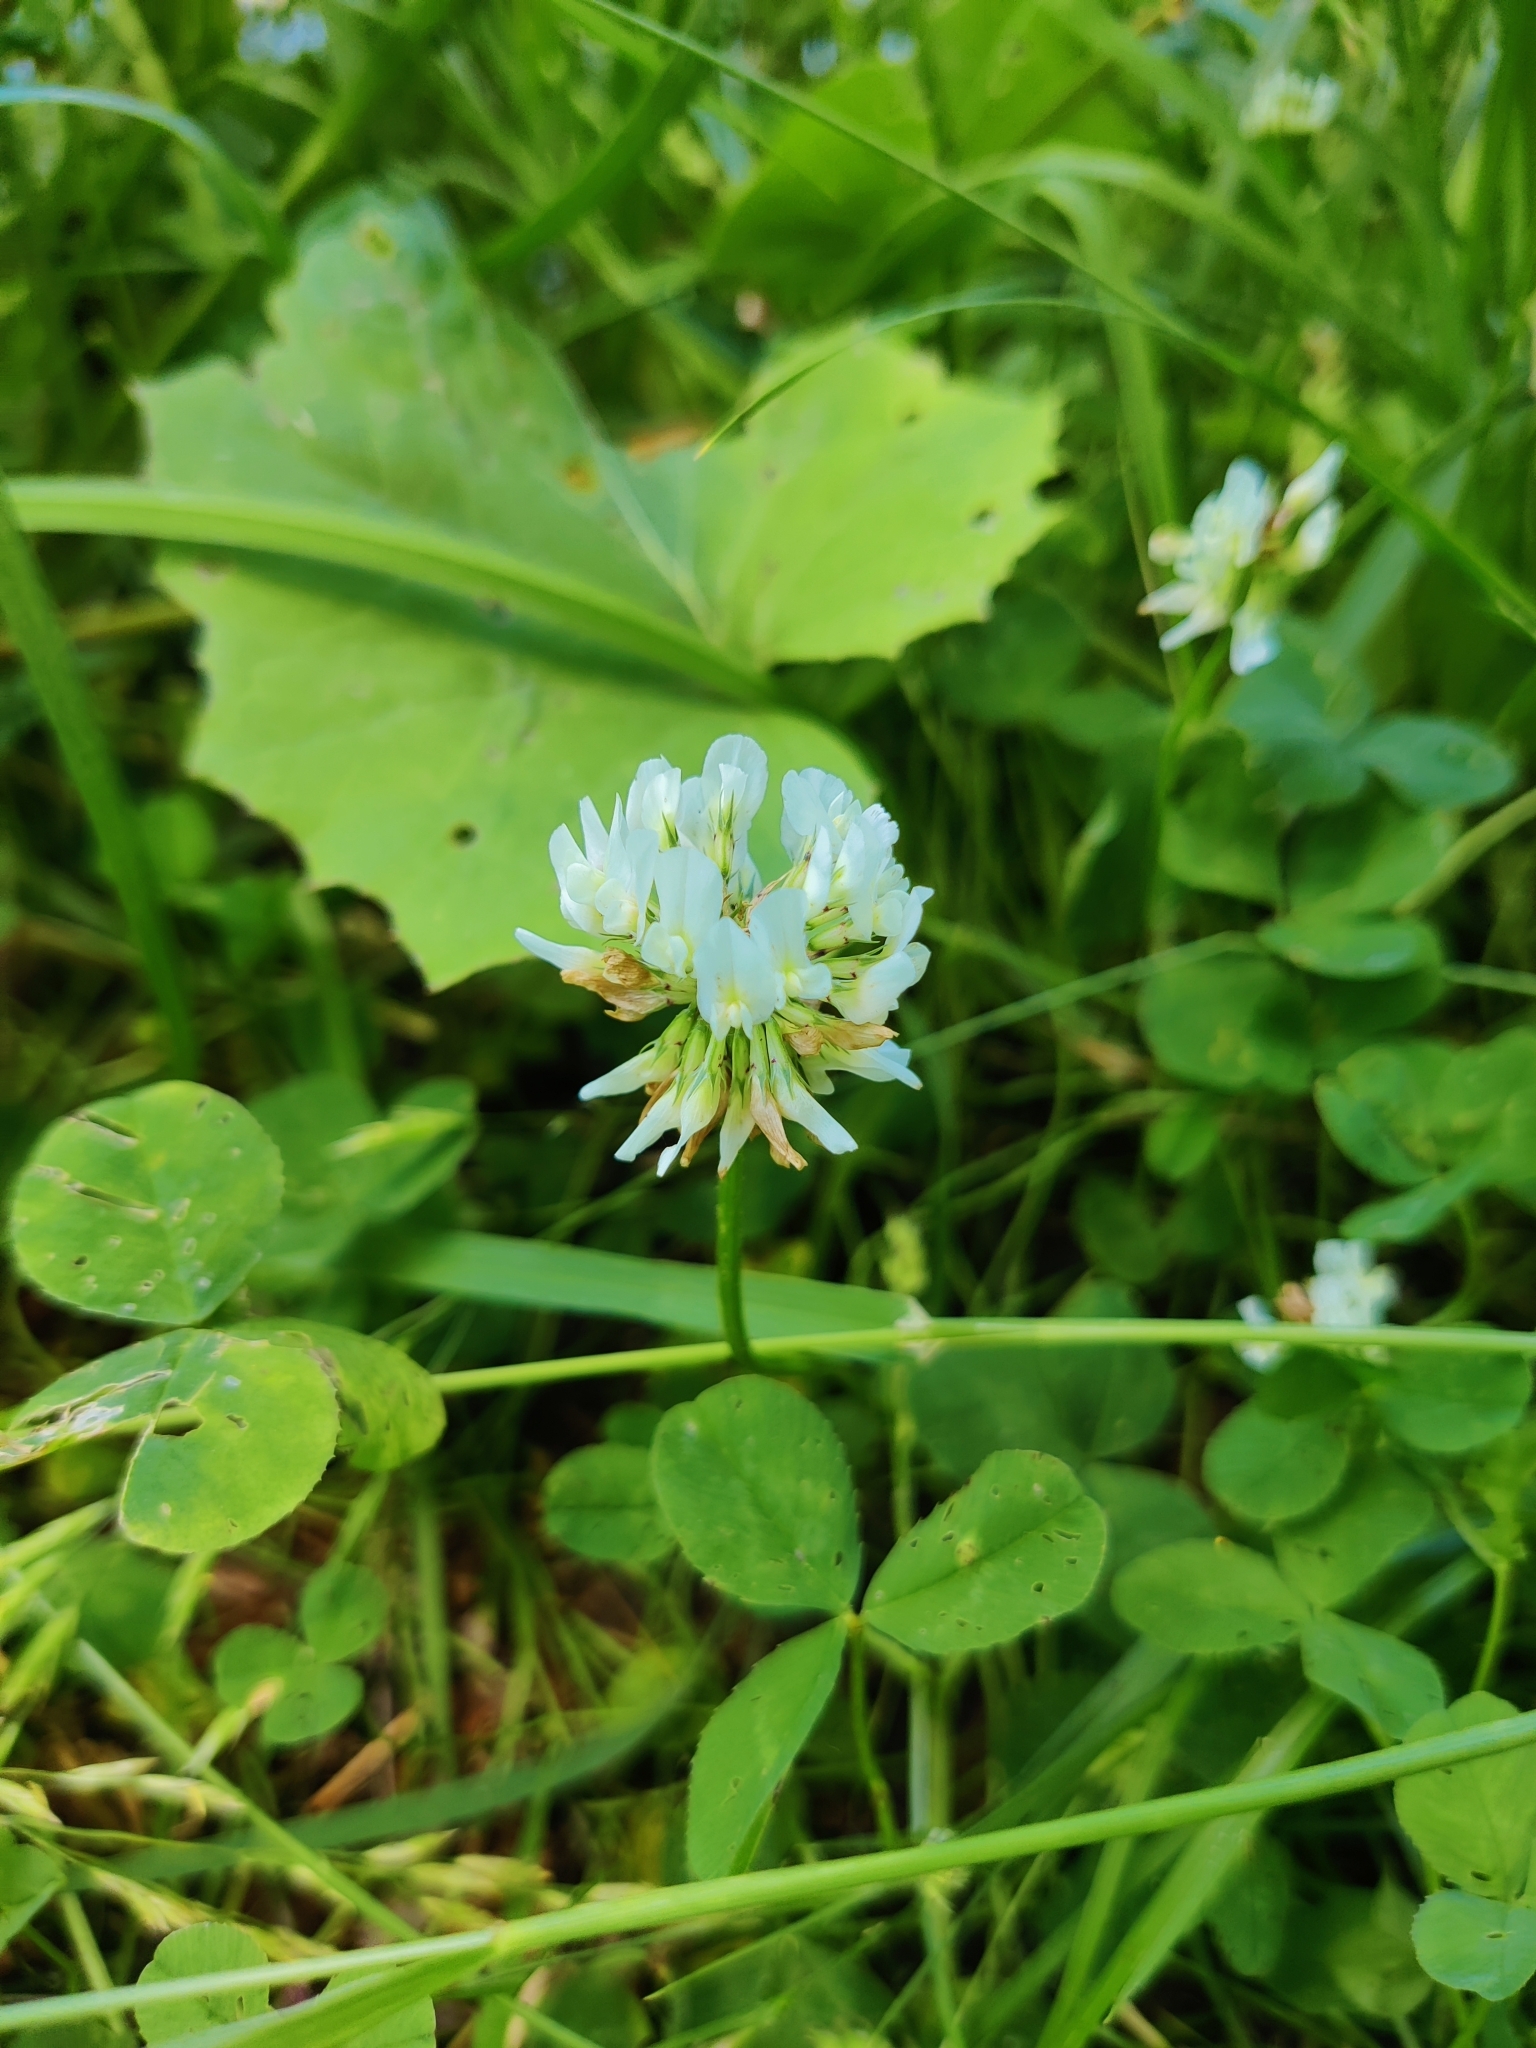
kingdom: Plantae
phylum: Tracheophyta
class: Magnoliopsida
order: Fabales
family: Fabaceae
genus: Trifolium
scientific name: Trifolium repens
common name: White clover
